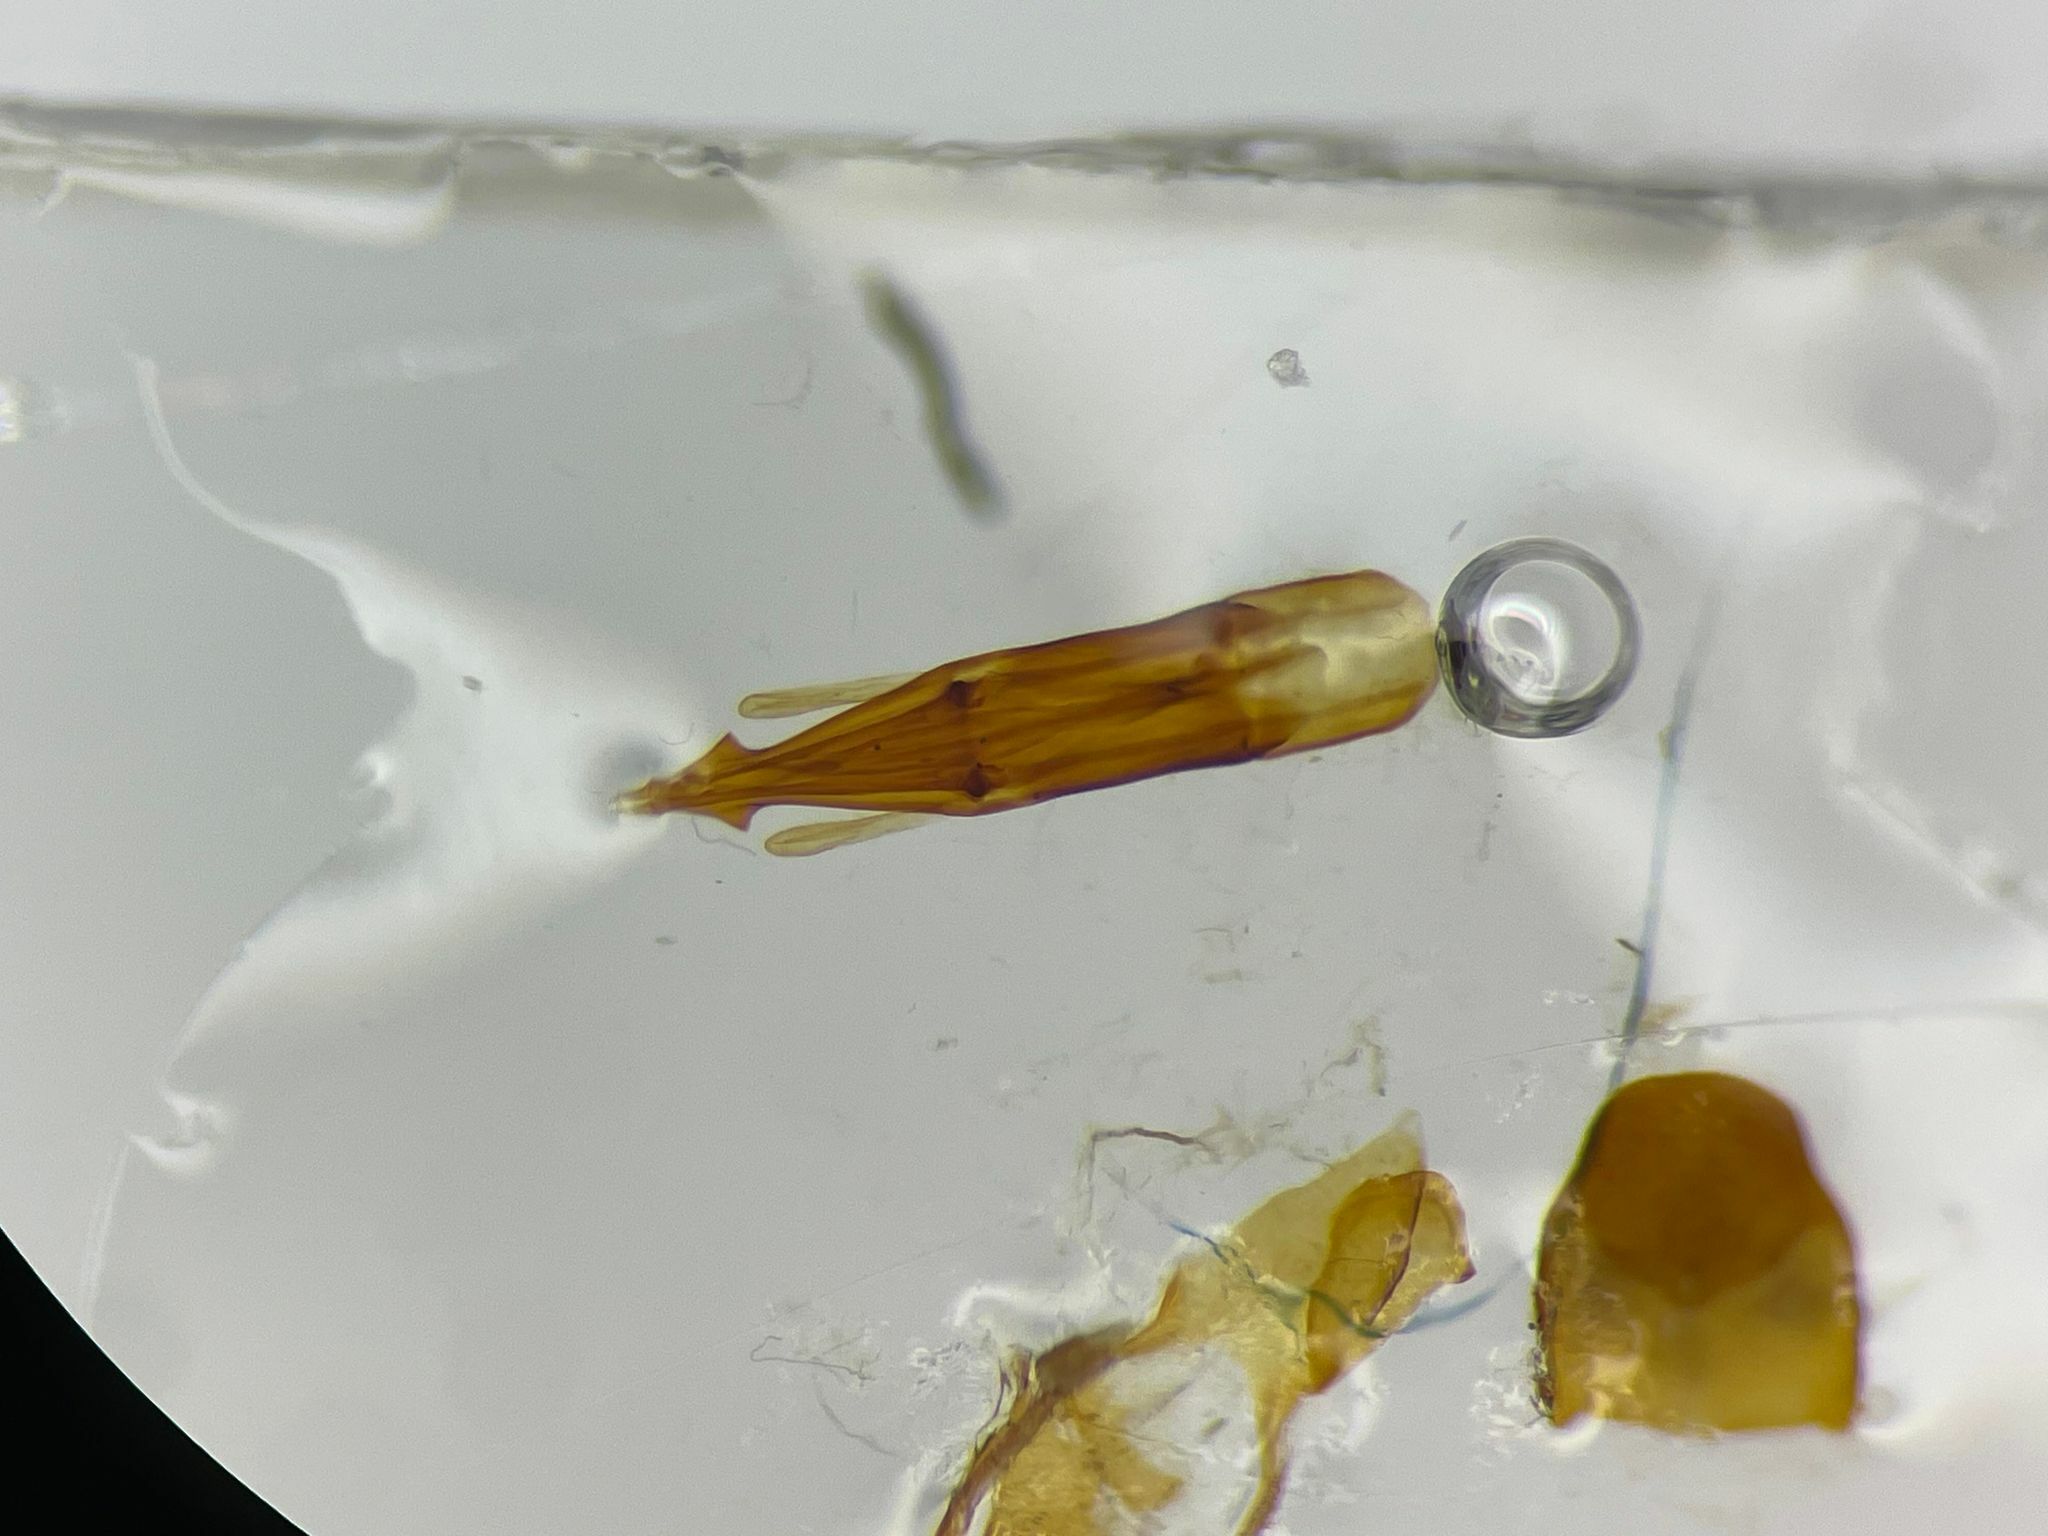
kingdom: Animalia
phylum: Arthropoda
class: Insecta
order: Coleoptera
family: Eucnemidae
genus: Nematodes
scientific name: Nematodes penetrans
